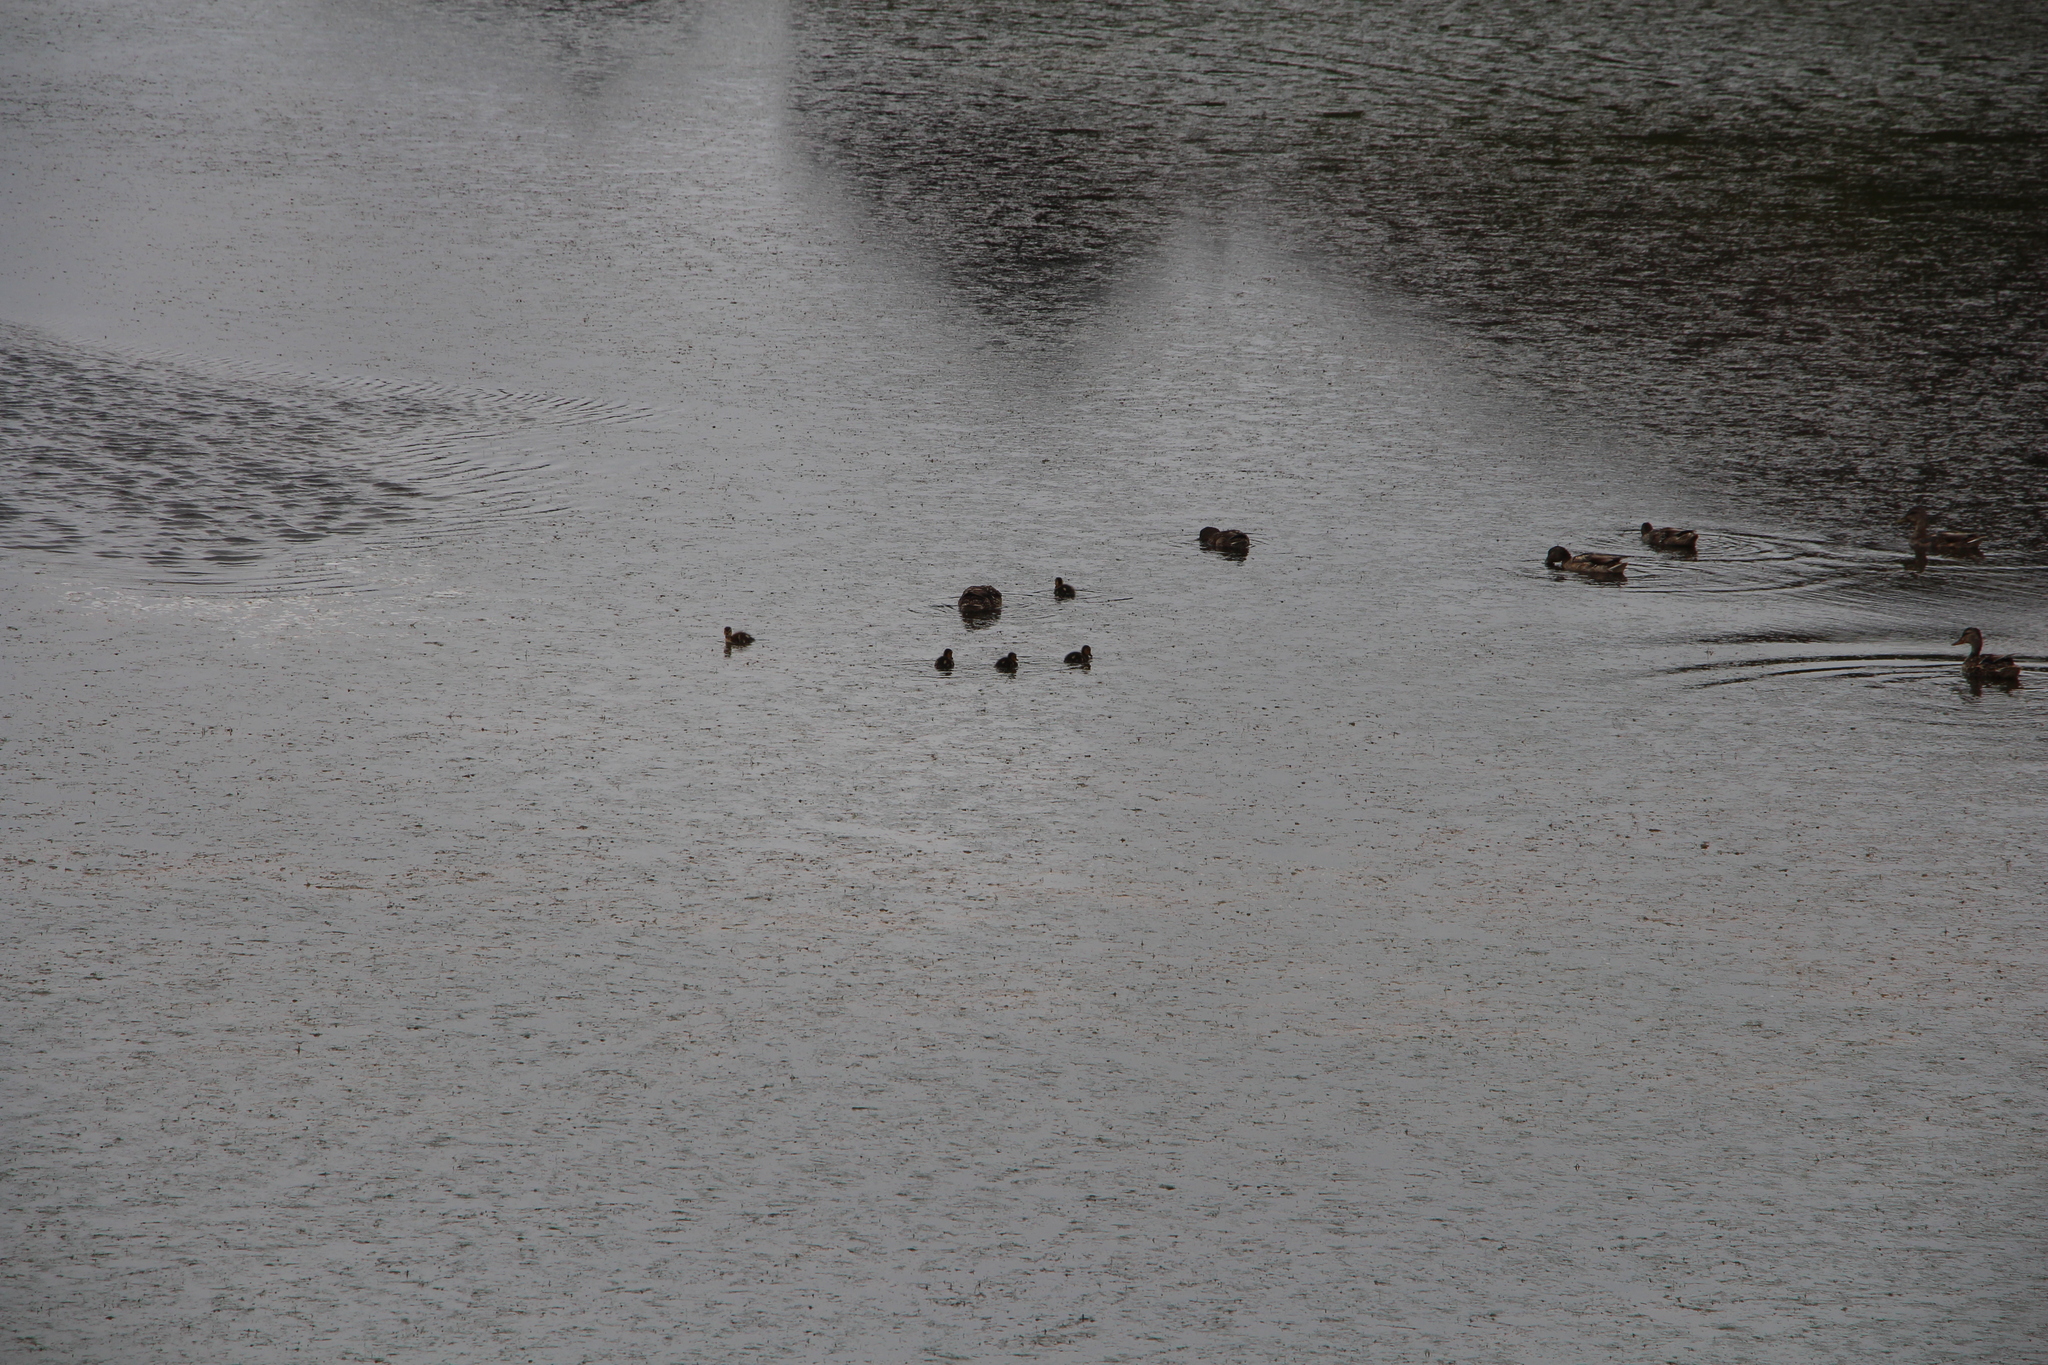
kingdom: Animalia
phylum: Chordata
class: Aves
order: Anseriformes
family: Anatidae
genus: Anas
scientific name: Anas platyrhynchos
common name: Mallard
